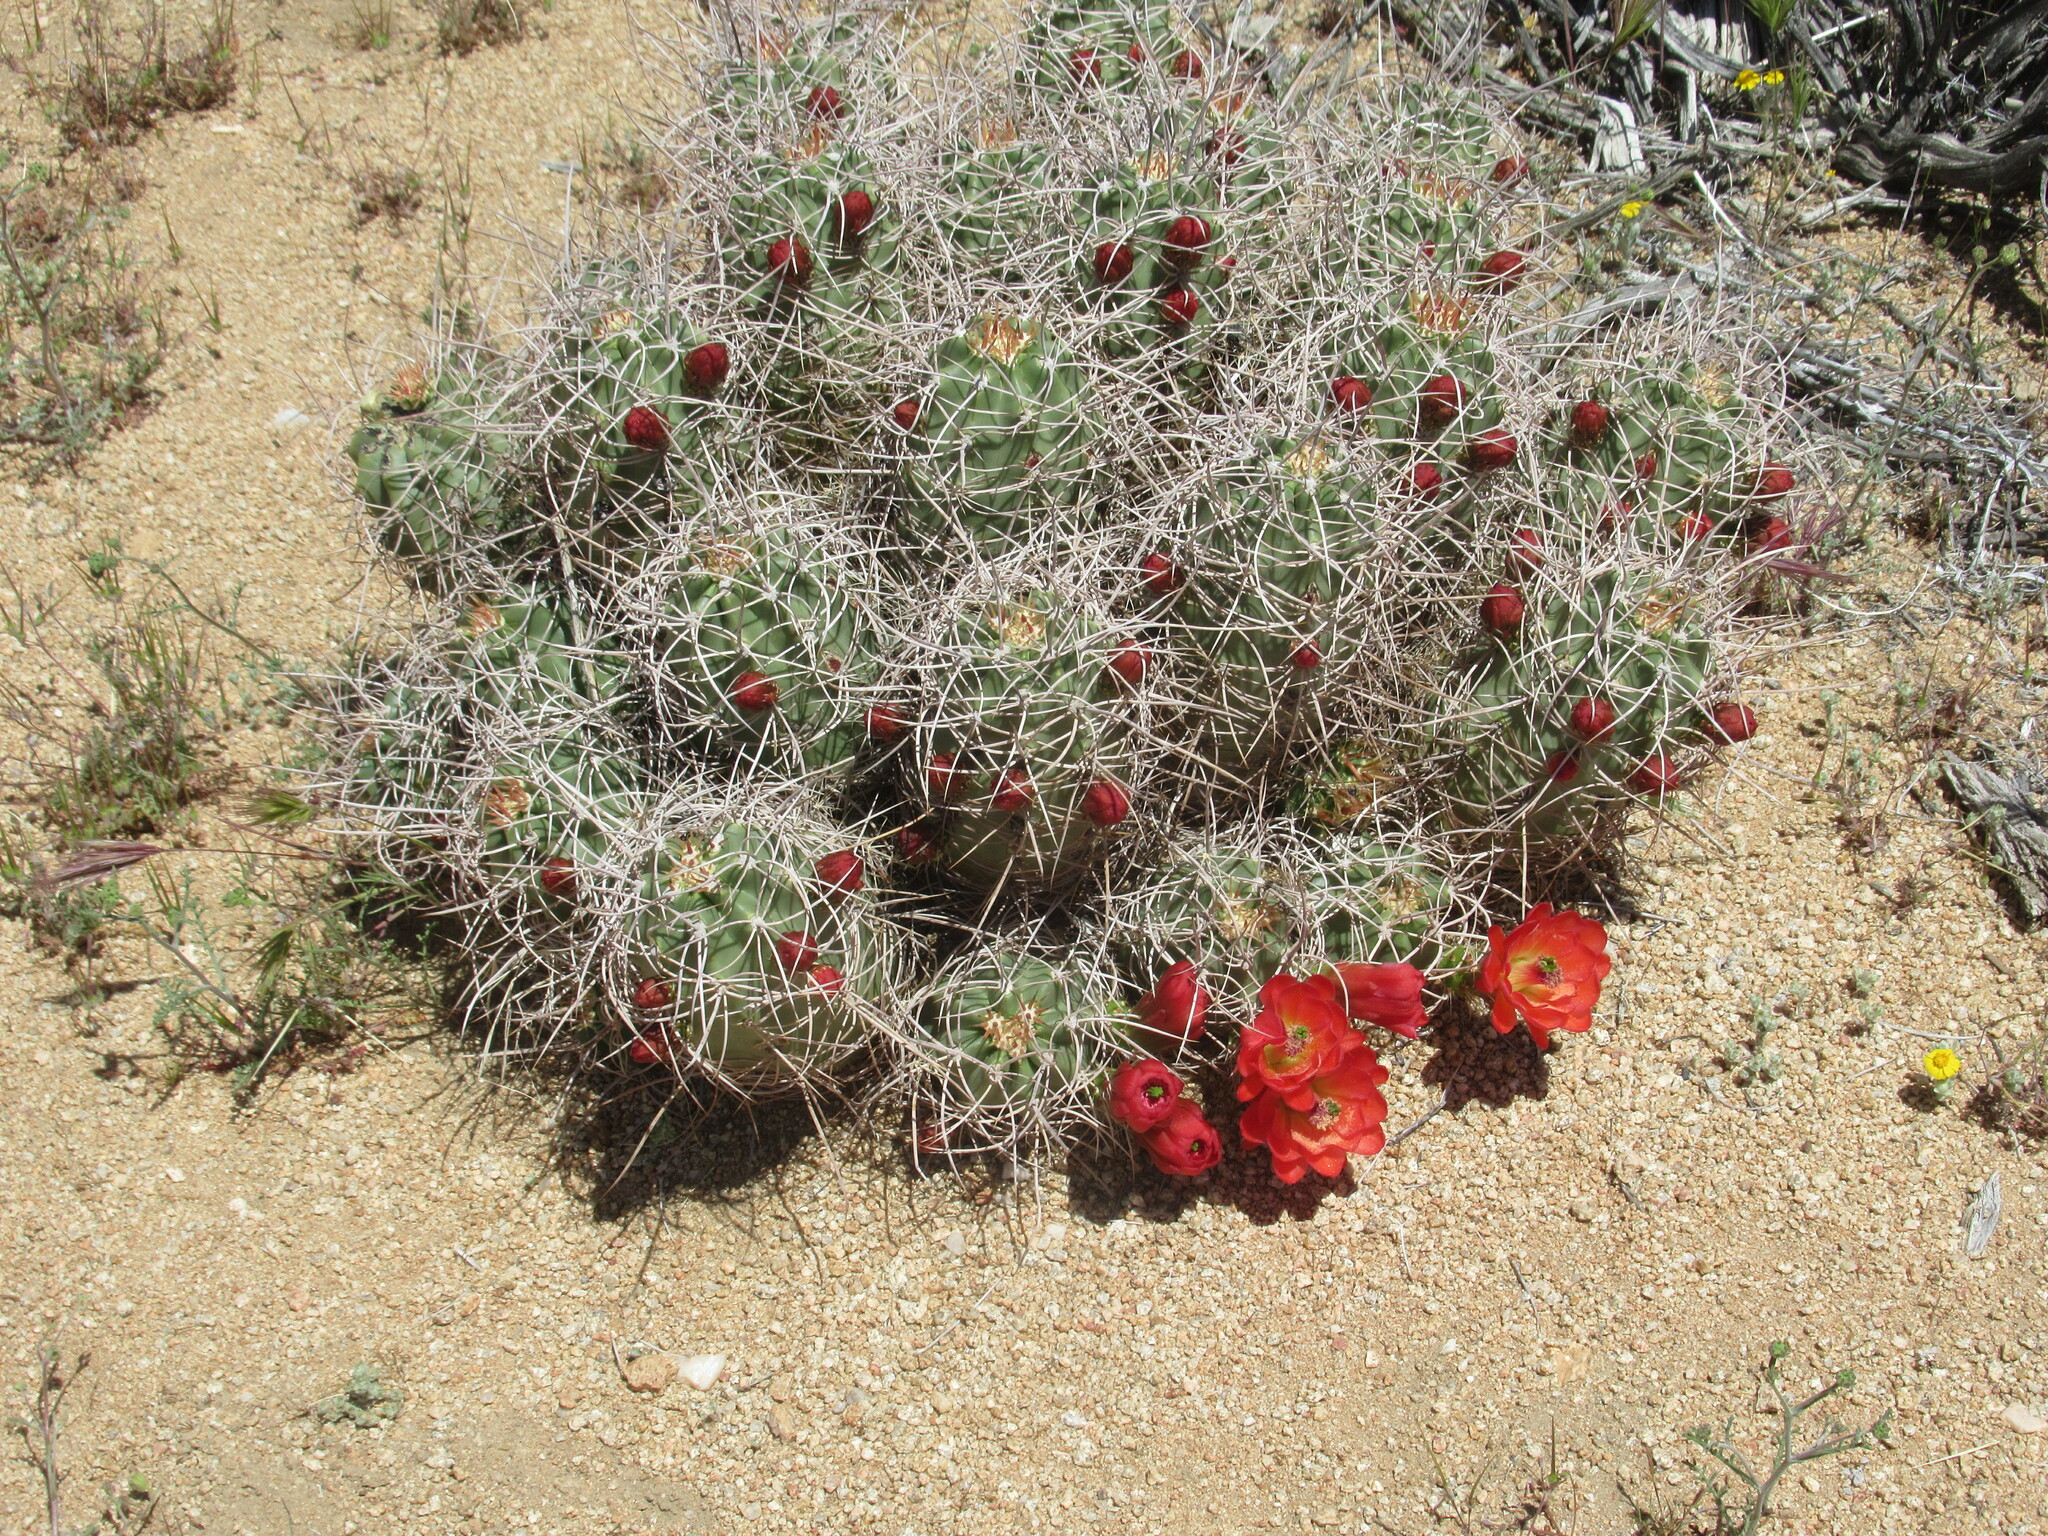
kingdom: Plantae
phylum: Tracheophyta
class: Magnoliopsida
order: Caryophyllales
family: Cactaceae
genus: Echinocereus
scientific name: Echinocereus triglochidiatus
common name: Claretcup hedgehog
